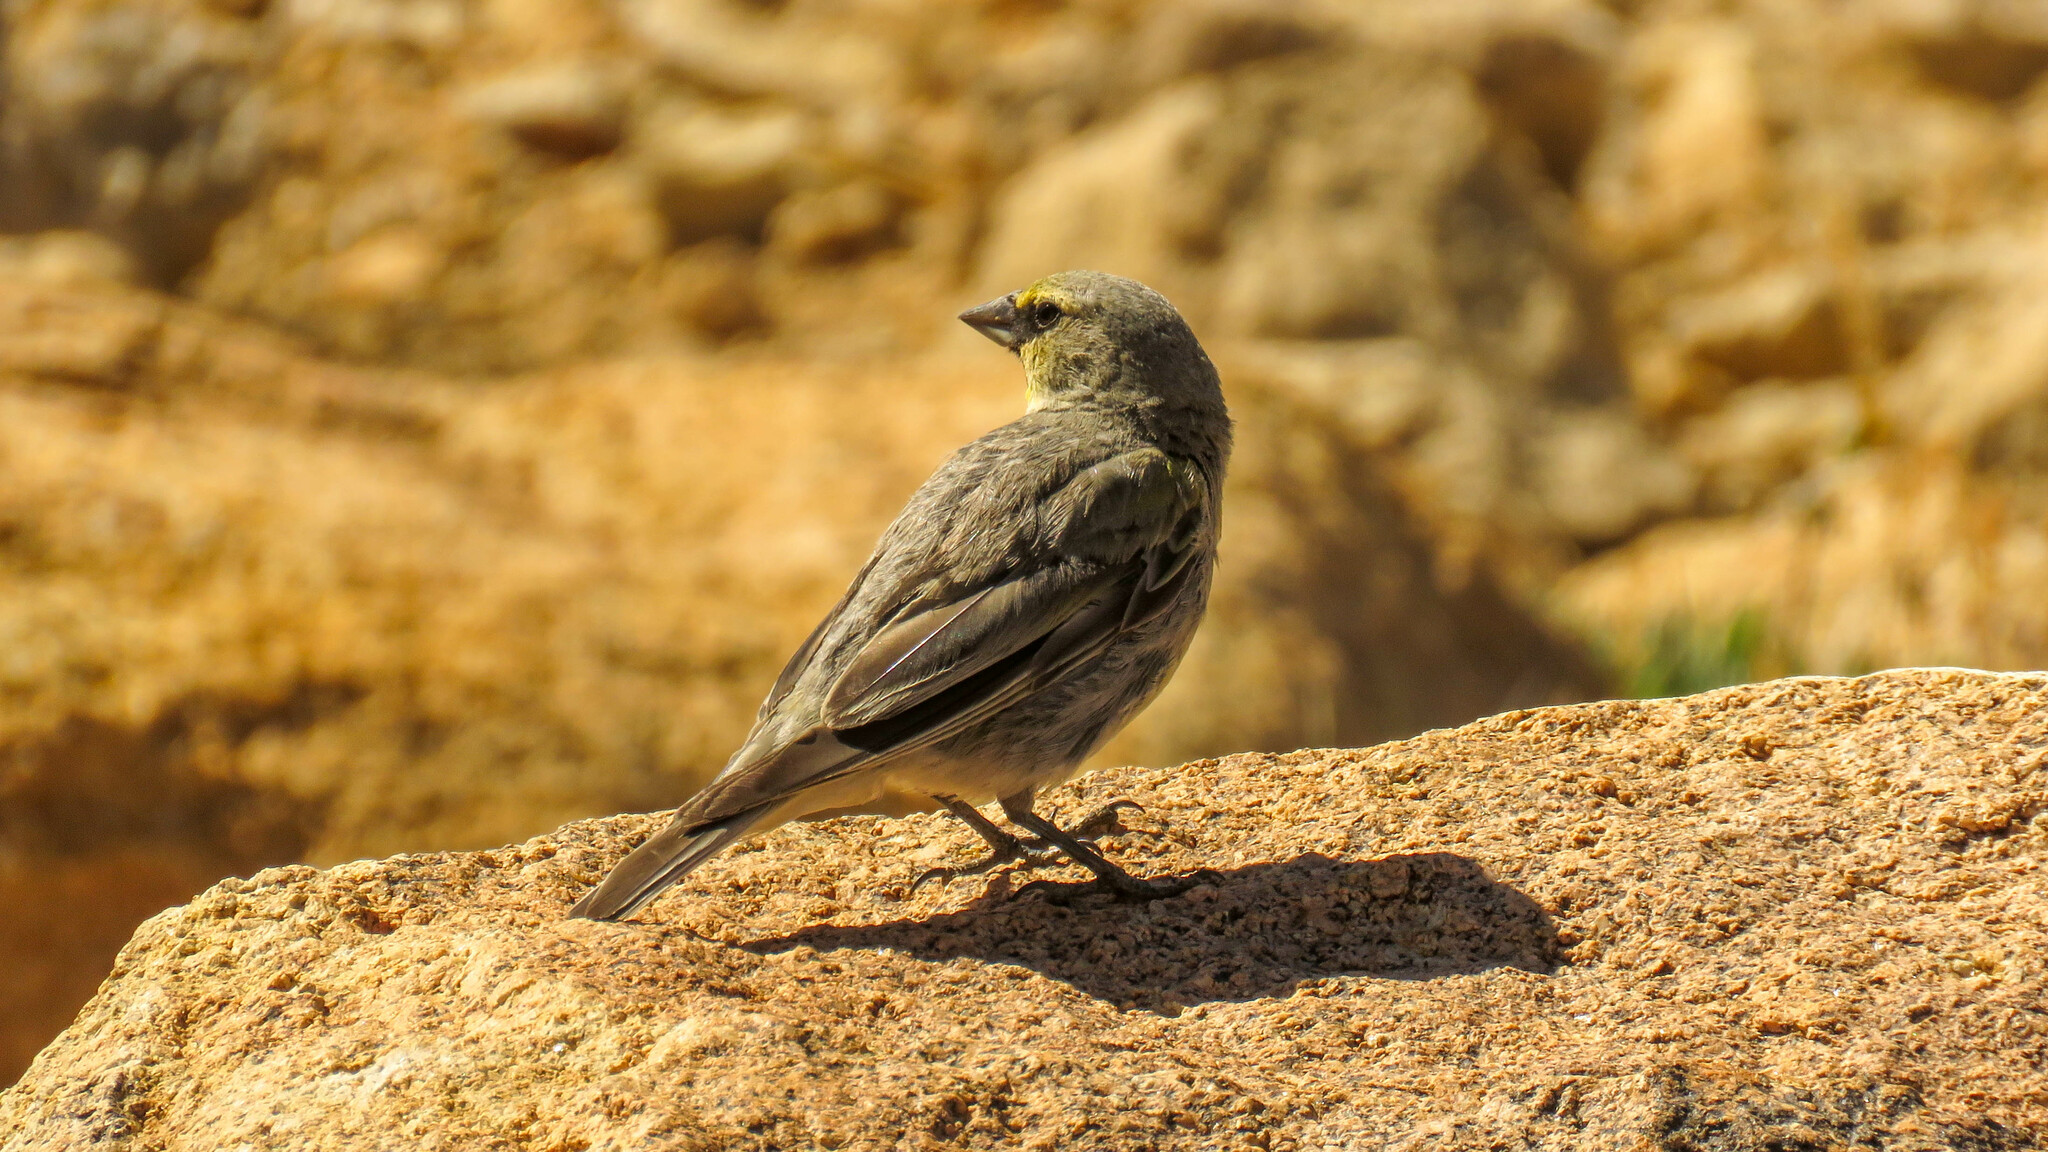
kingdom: Animalia
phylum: Chordata
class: Aves
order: Passeriformes
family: Thraupidae
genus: Melanodera
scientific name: Melanodera xanthogramma
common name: Yellow-bridled finch
